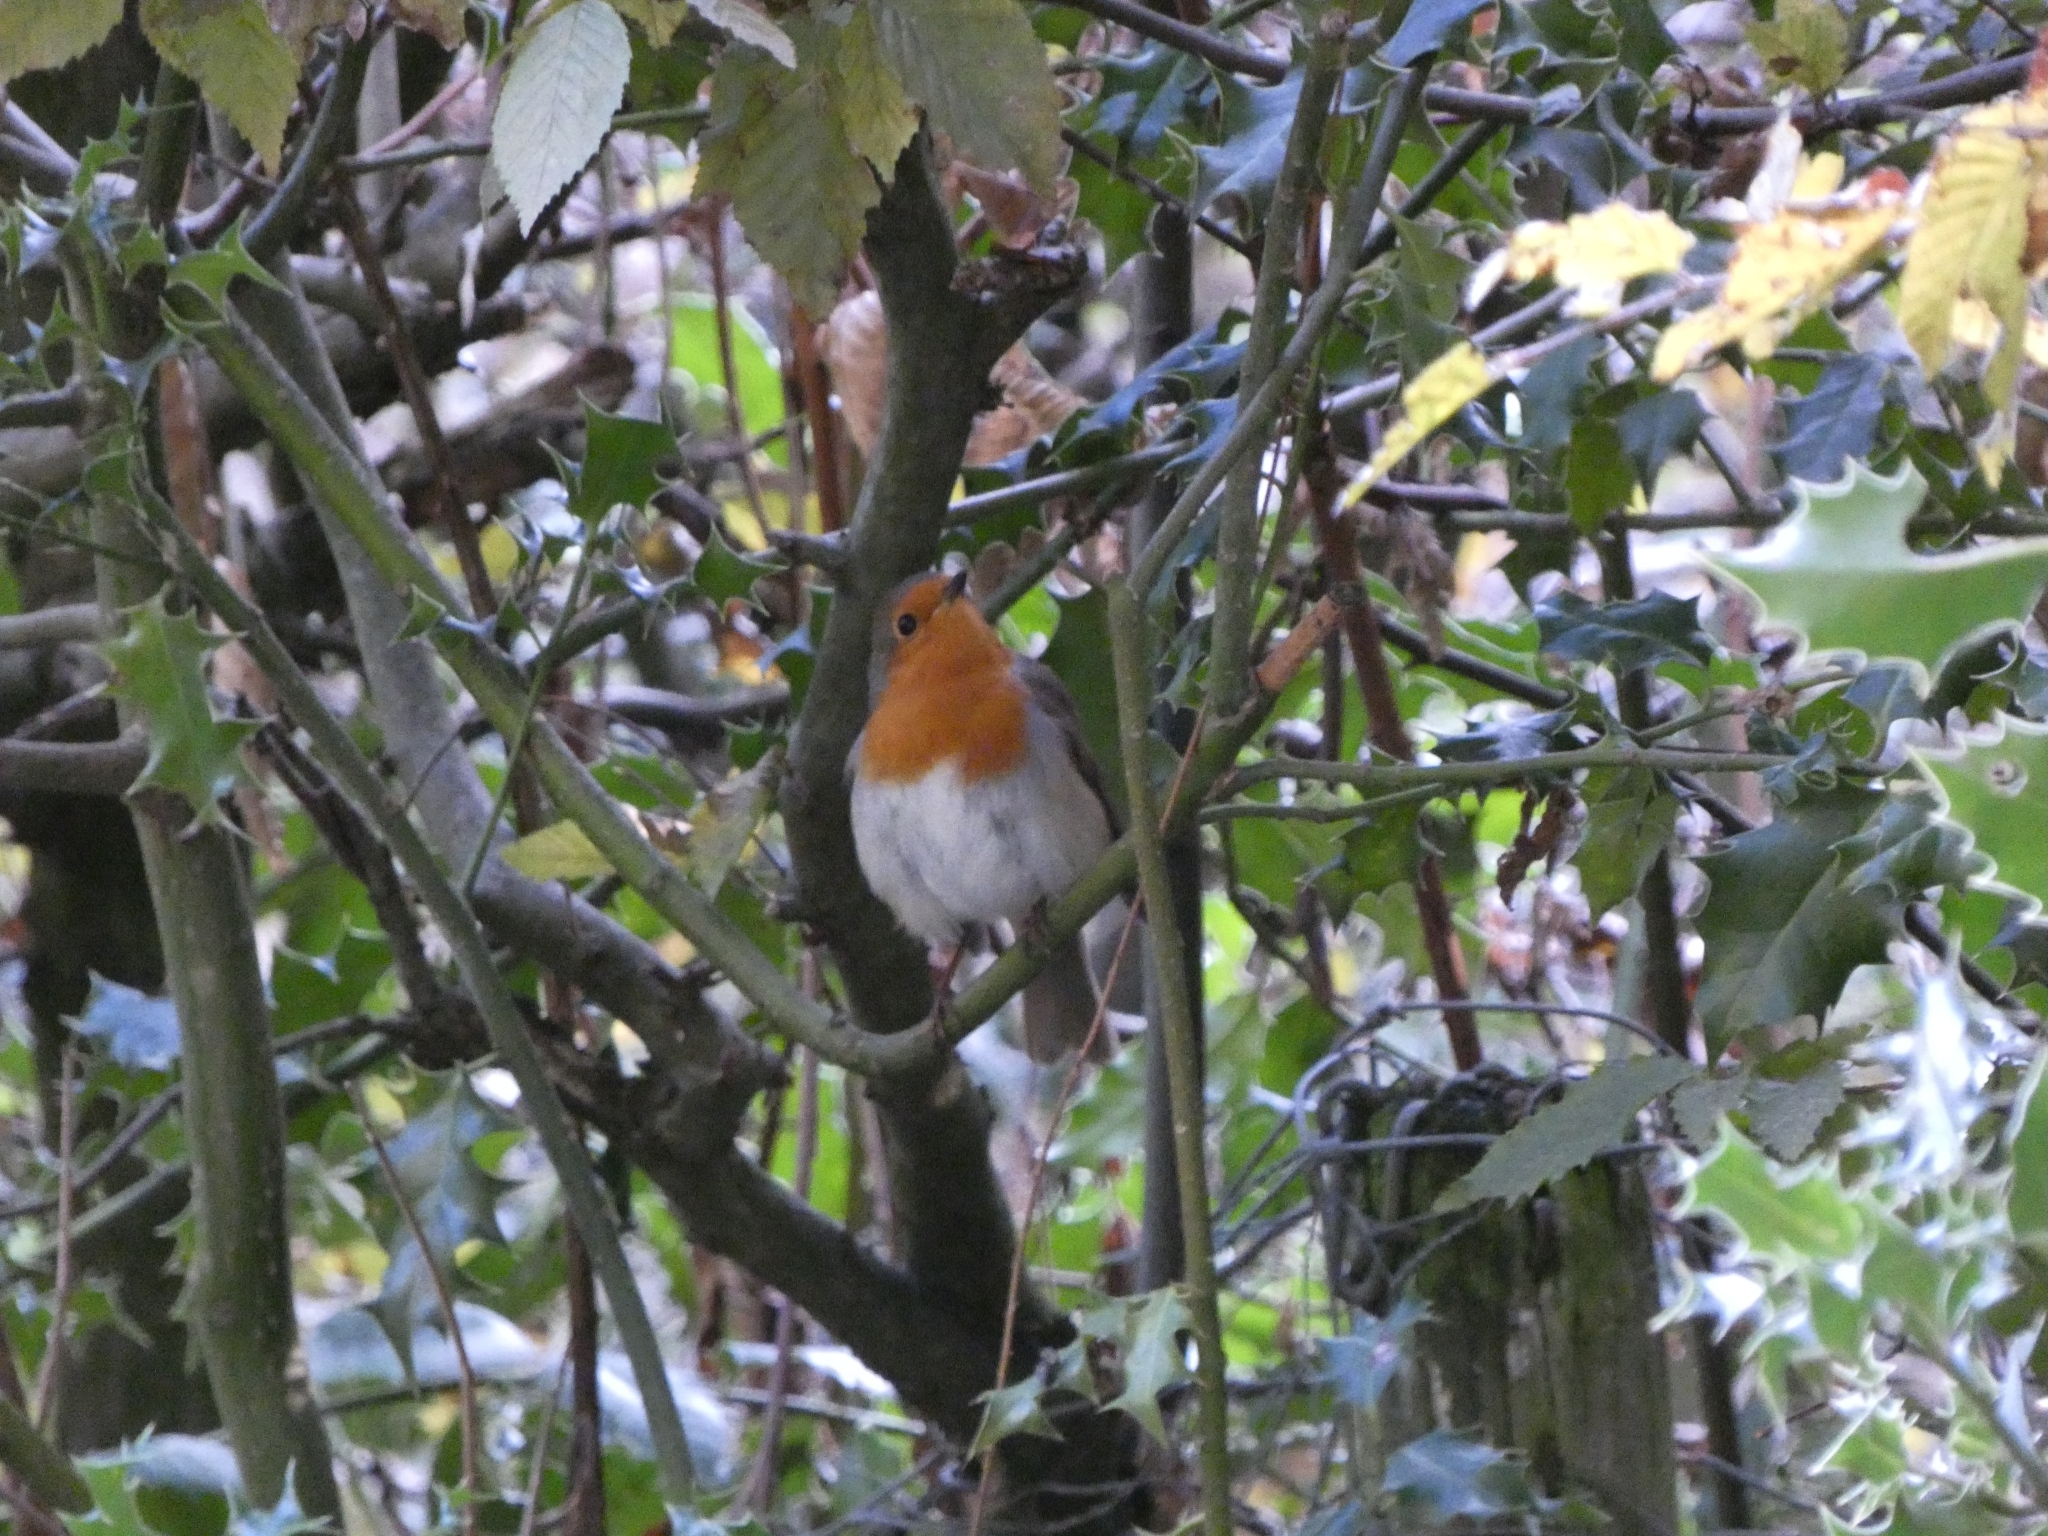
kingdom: Animalia
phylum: Chordata
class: Aves
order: Passeriformes
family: Muscicapidae
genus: Erithacus
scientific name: Erithacus rubecula
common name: European robin
